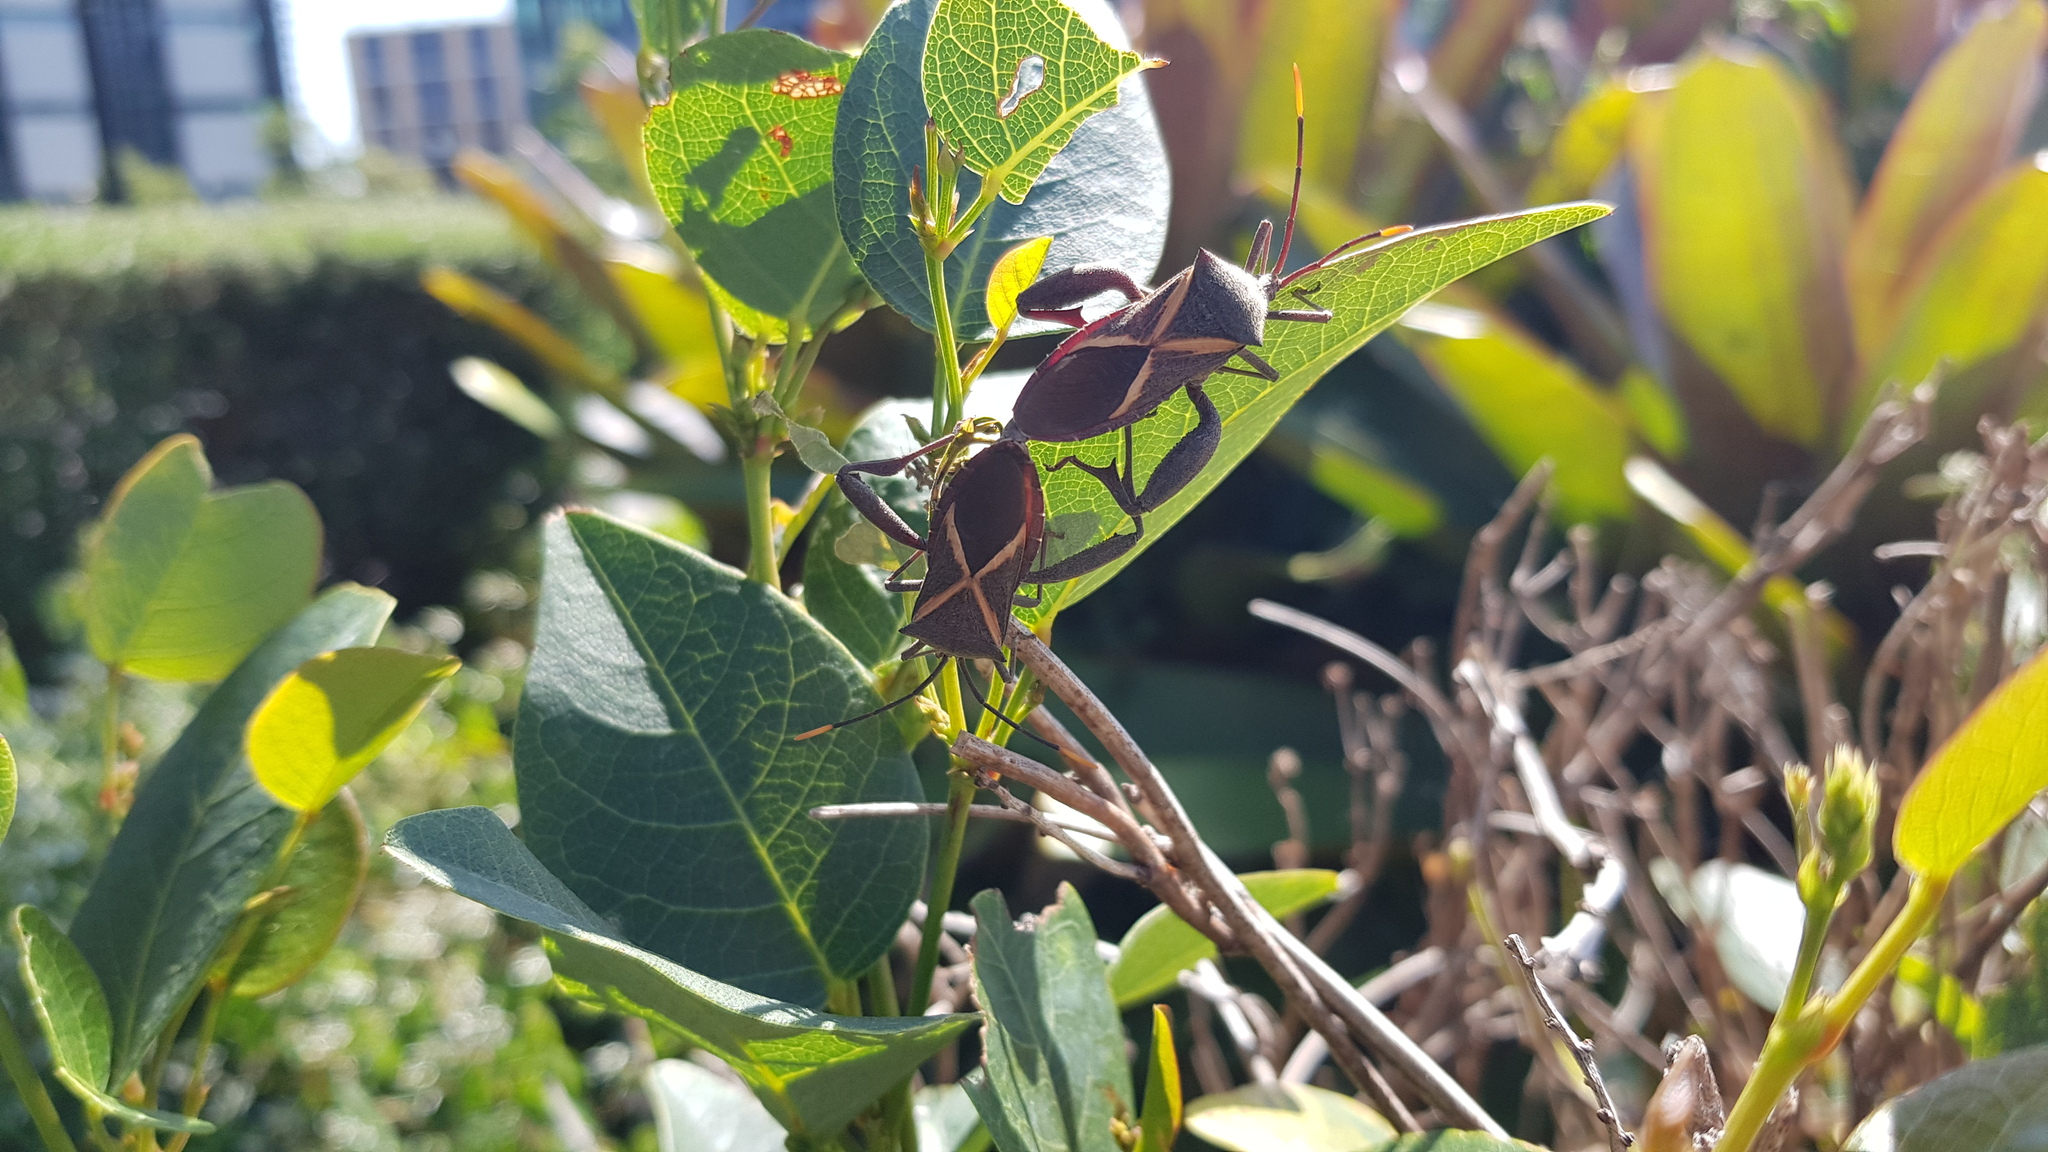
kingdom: Animalia
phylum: Arthropoda
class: Insecta
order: Hemiptera
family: Coreidae
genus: Mictis
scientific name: Mictis profana
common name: Crusader bug
